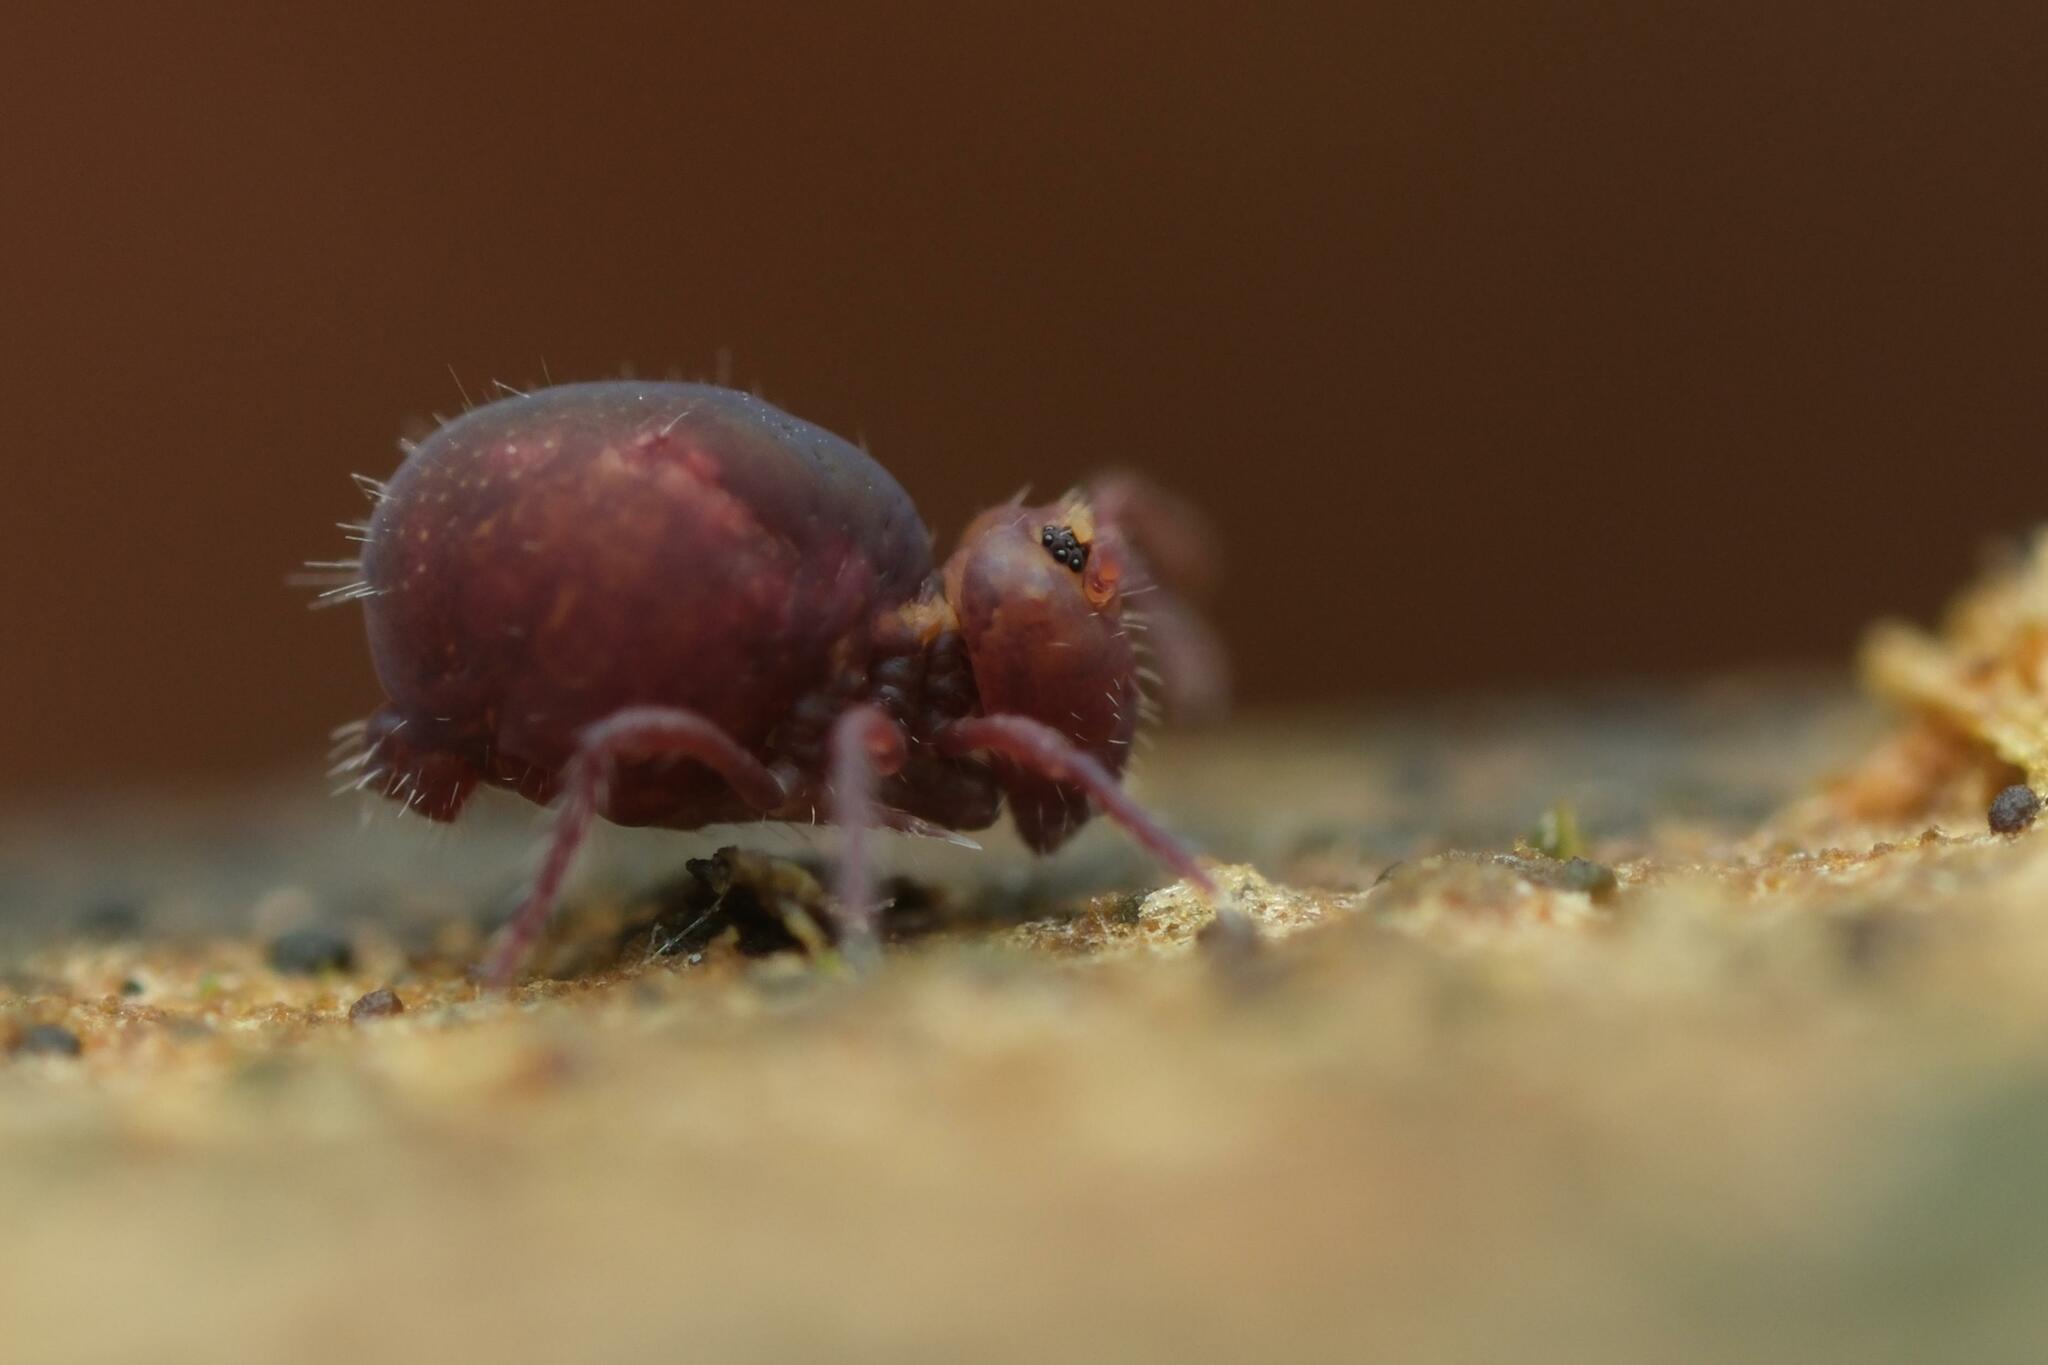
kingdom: Animalia
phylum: Arthropoda
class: Collembola
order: Symphypleona
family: Dicyrtomidae
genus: Dicyrtoma
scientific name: Dicyrtoma fusca
